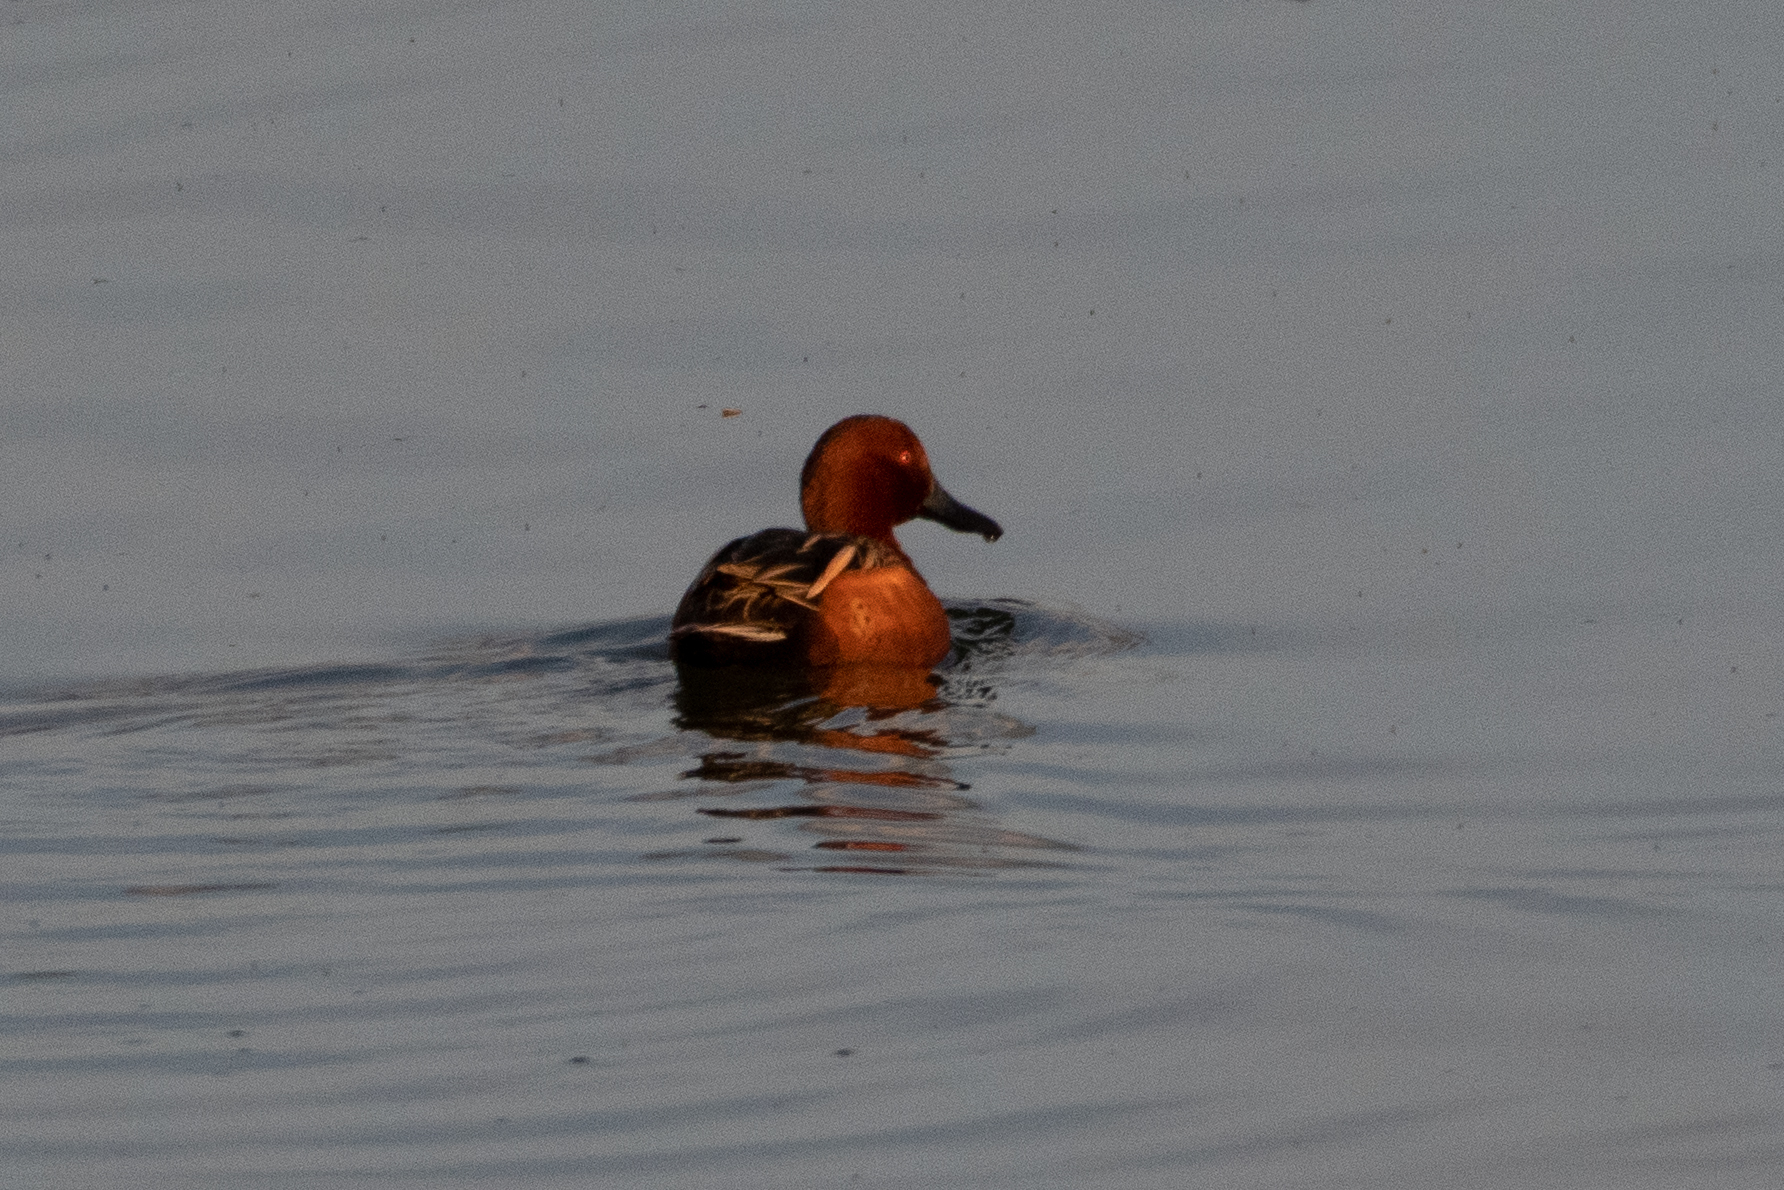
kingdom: Animalia
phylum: Chordata
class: Aves
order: Anseriformes
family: Anatidae
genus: Spatula
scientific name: Spatula cyanoptera
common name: Cinnamon teal
